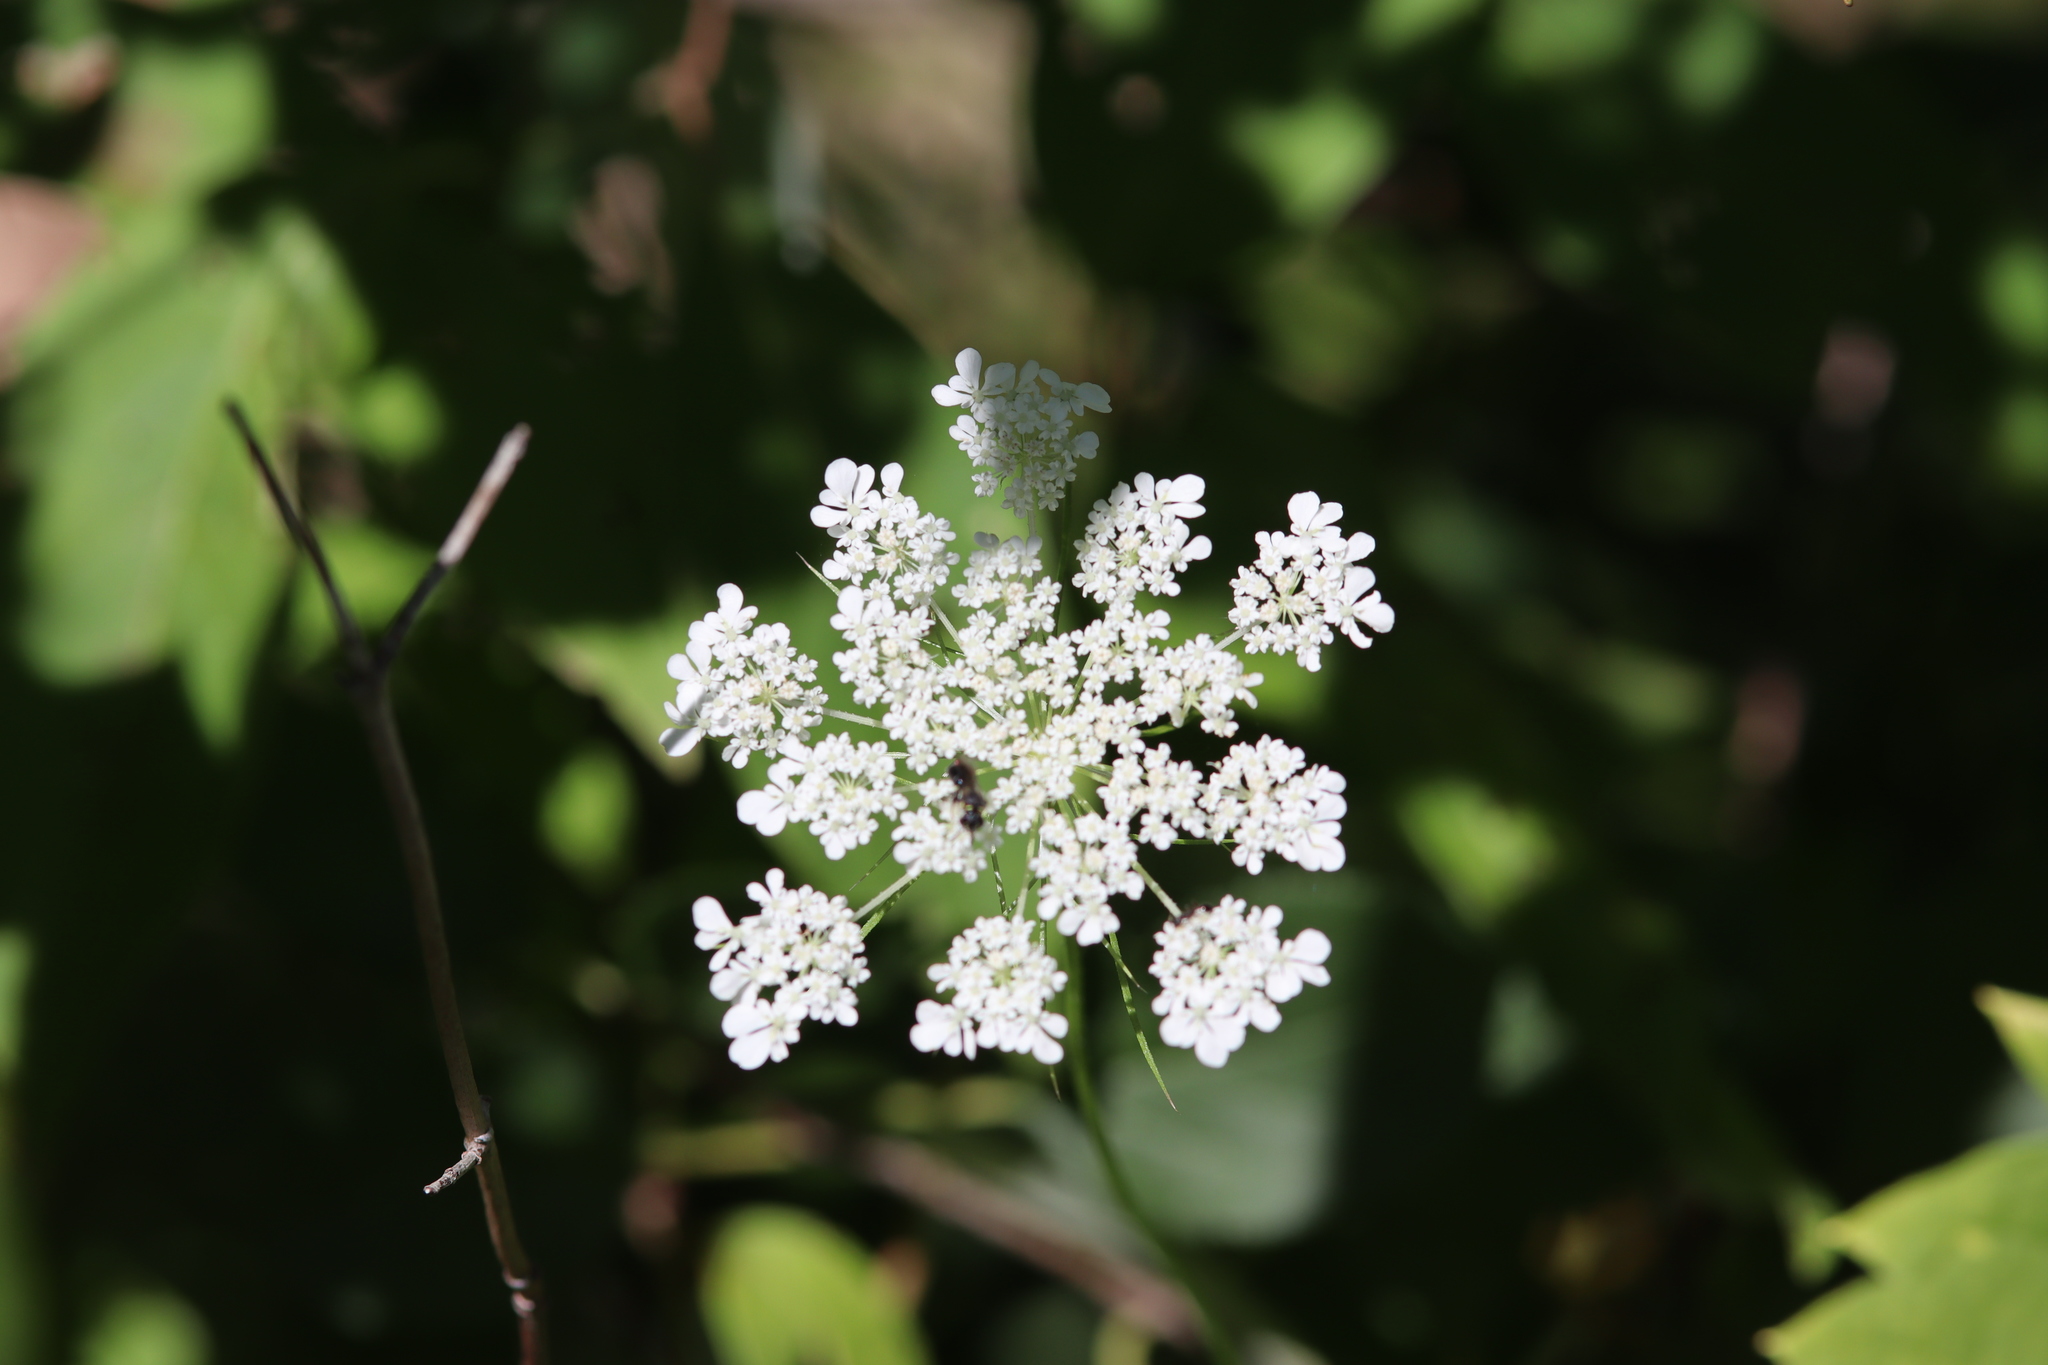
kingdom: Plantae
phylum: Tracheophyta
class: Magnoliopsida
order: Apiales
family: Apiaceae
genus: Daucus
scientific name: Daucus carota
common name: Wild carrot
